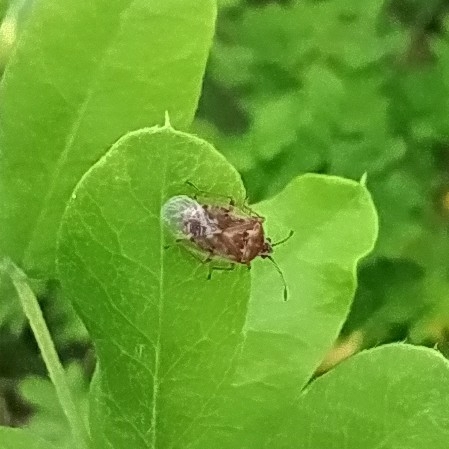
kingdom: Animalia
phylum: Arthropoda
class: Insecta
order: Hemiptera
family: Lygaeidae
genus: Kleidocerys
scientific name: Kleidocerys resedae
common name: Birch catkin bug
